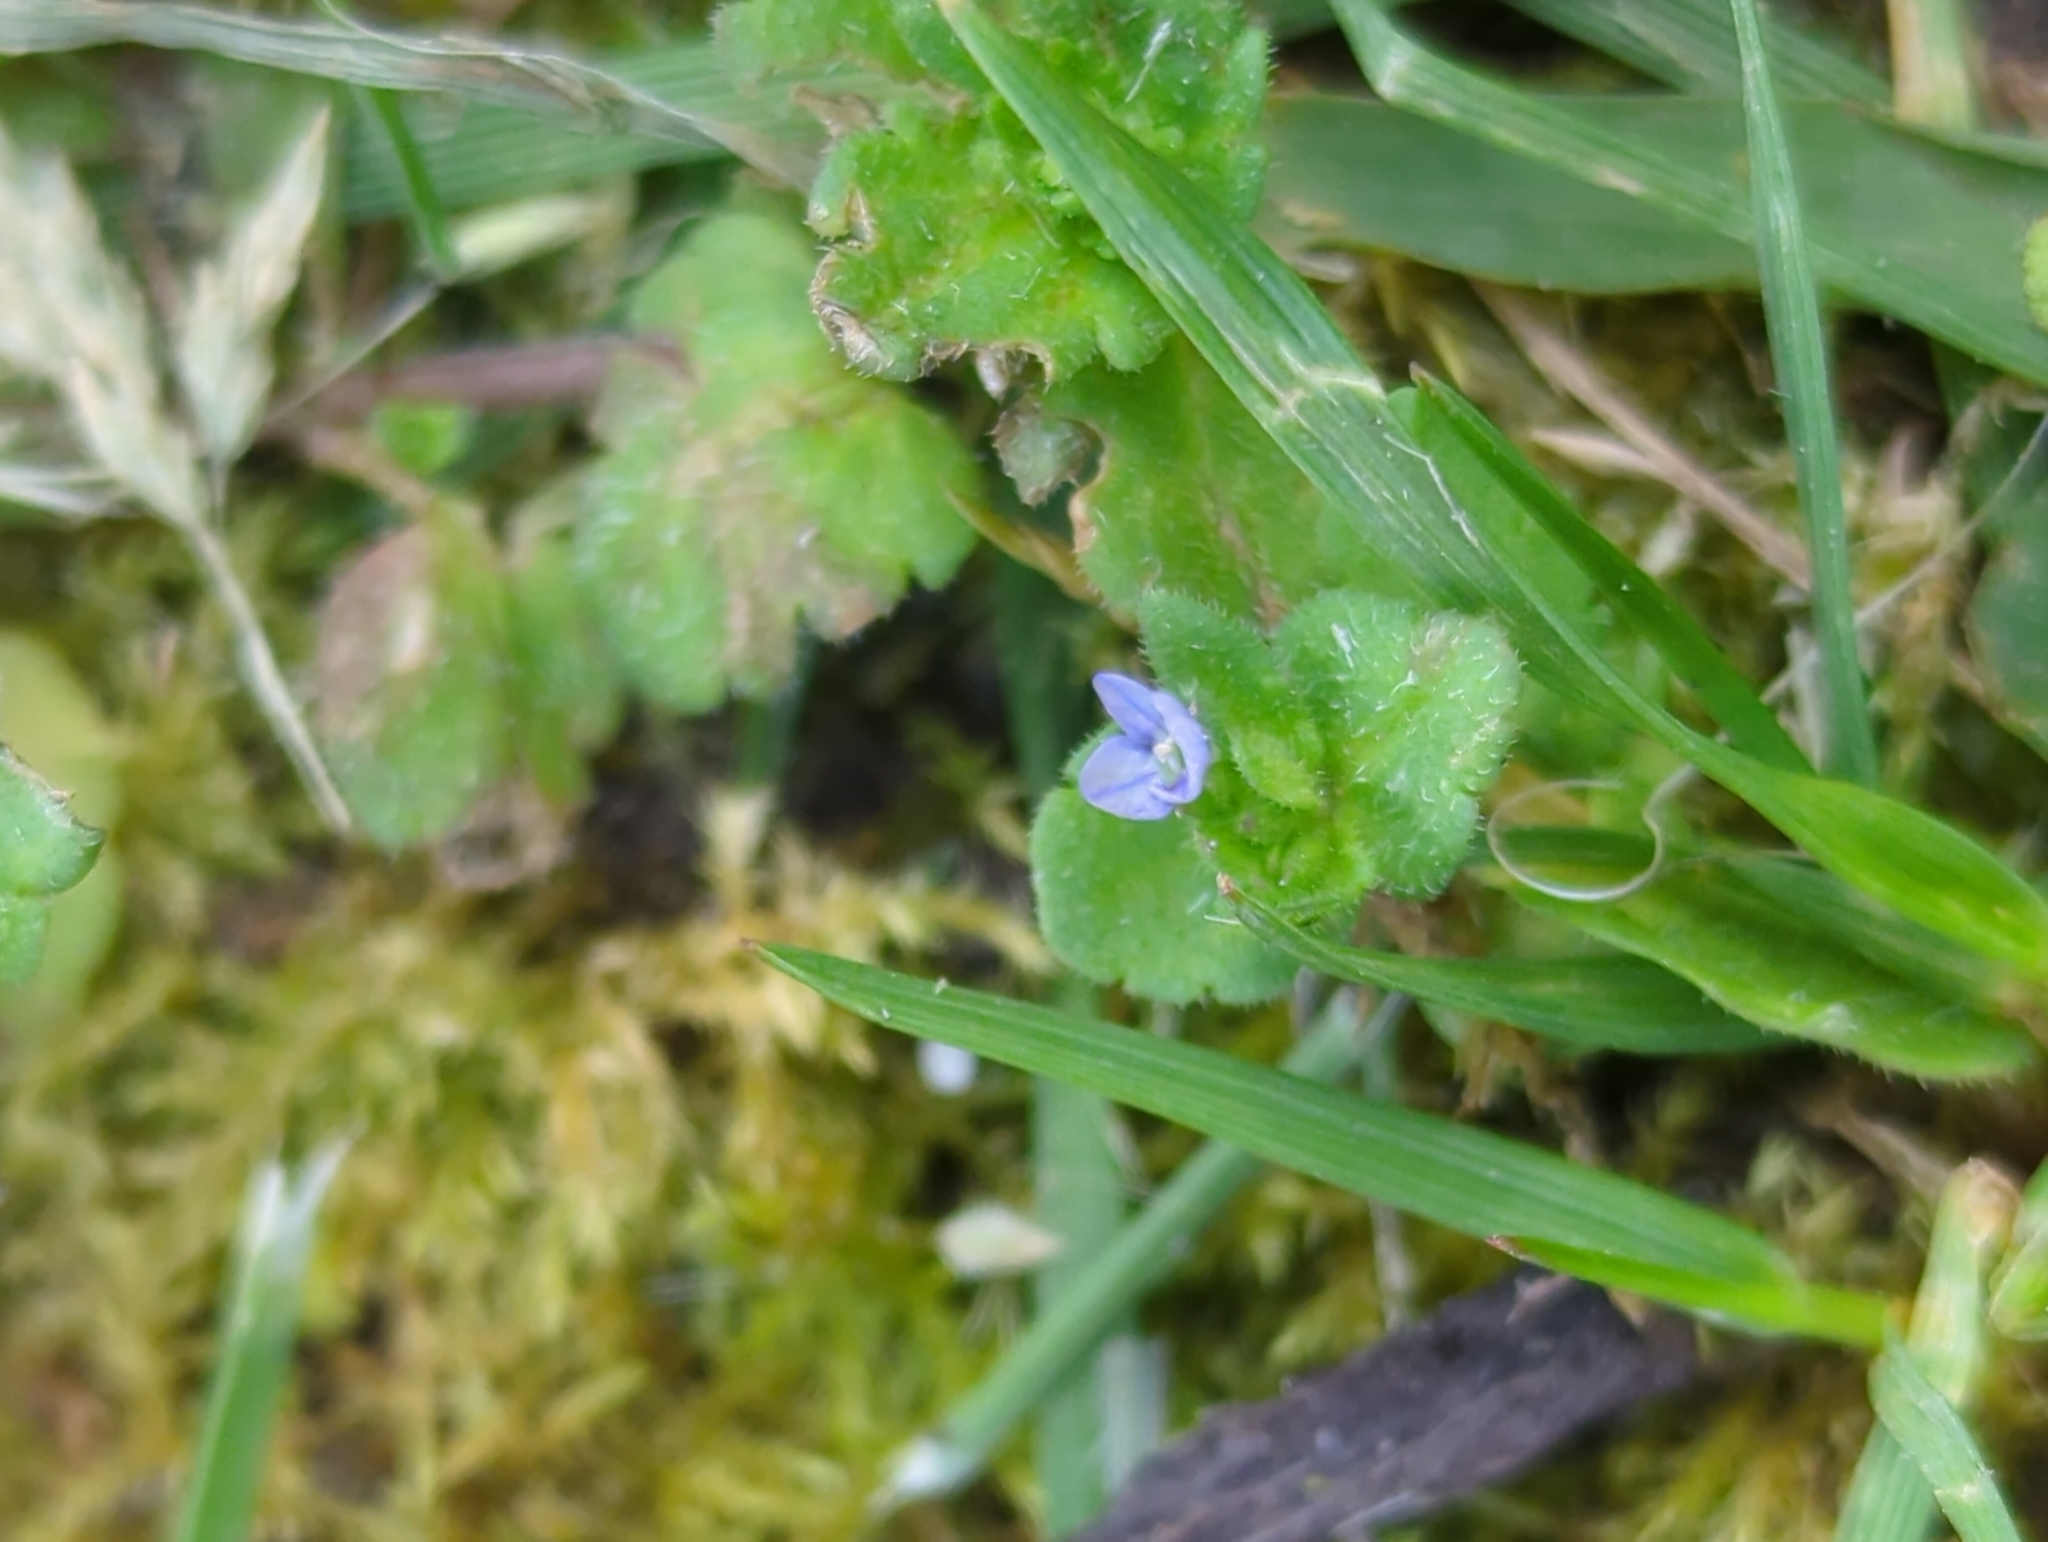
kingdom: Plantae
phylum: Tracheophyta
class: Magnoliopsida
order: Lamiales
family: Plantaginaceae
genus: Veronica
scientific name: Veronica arvensis
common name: Corn speedwell
